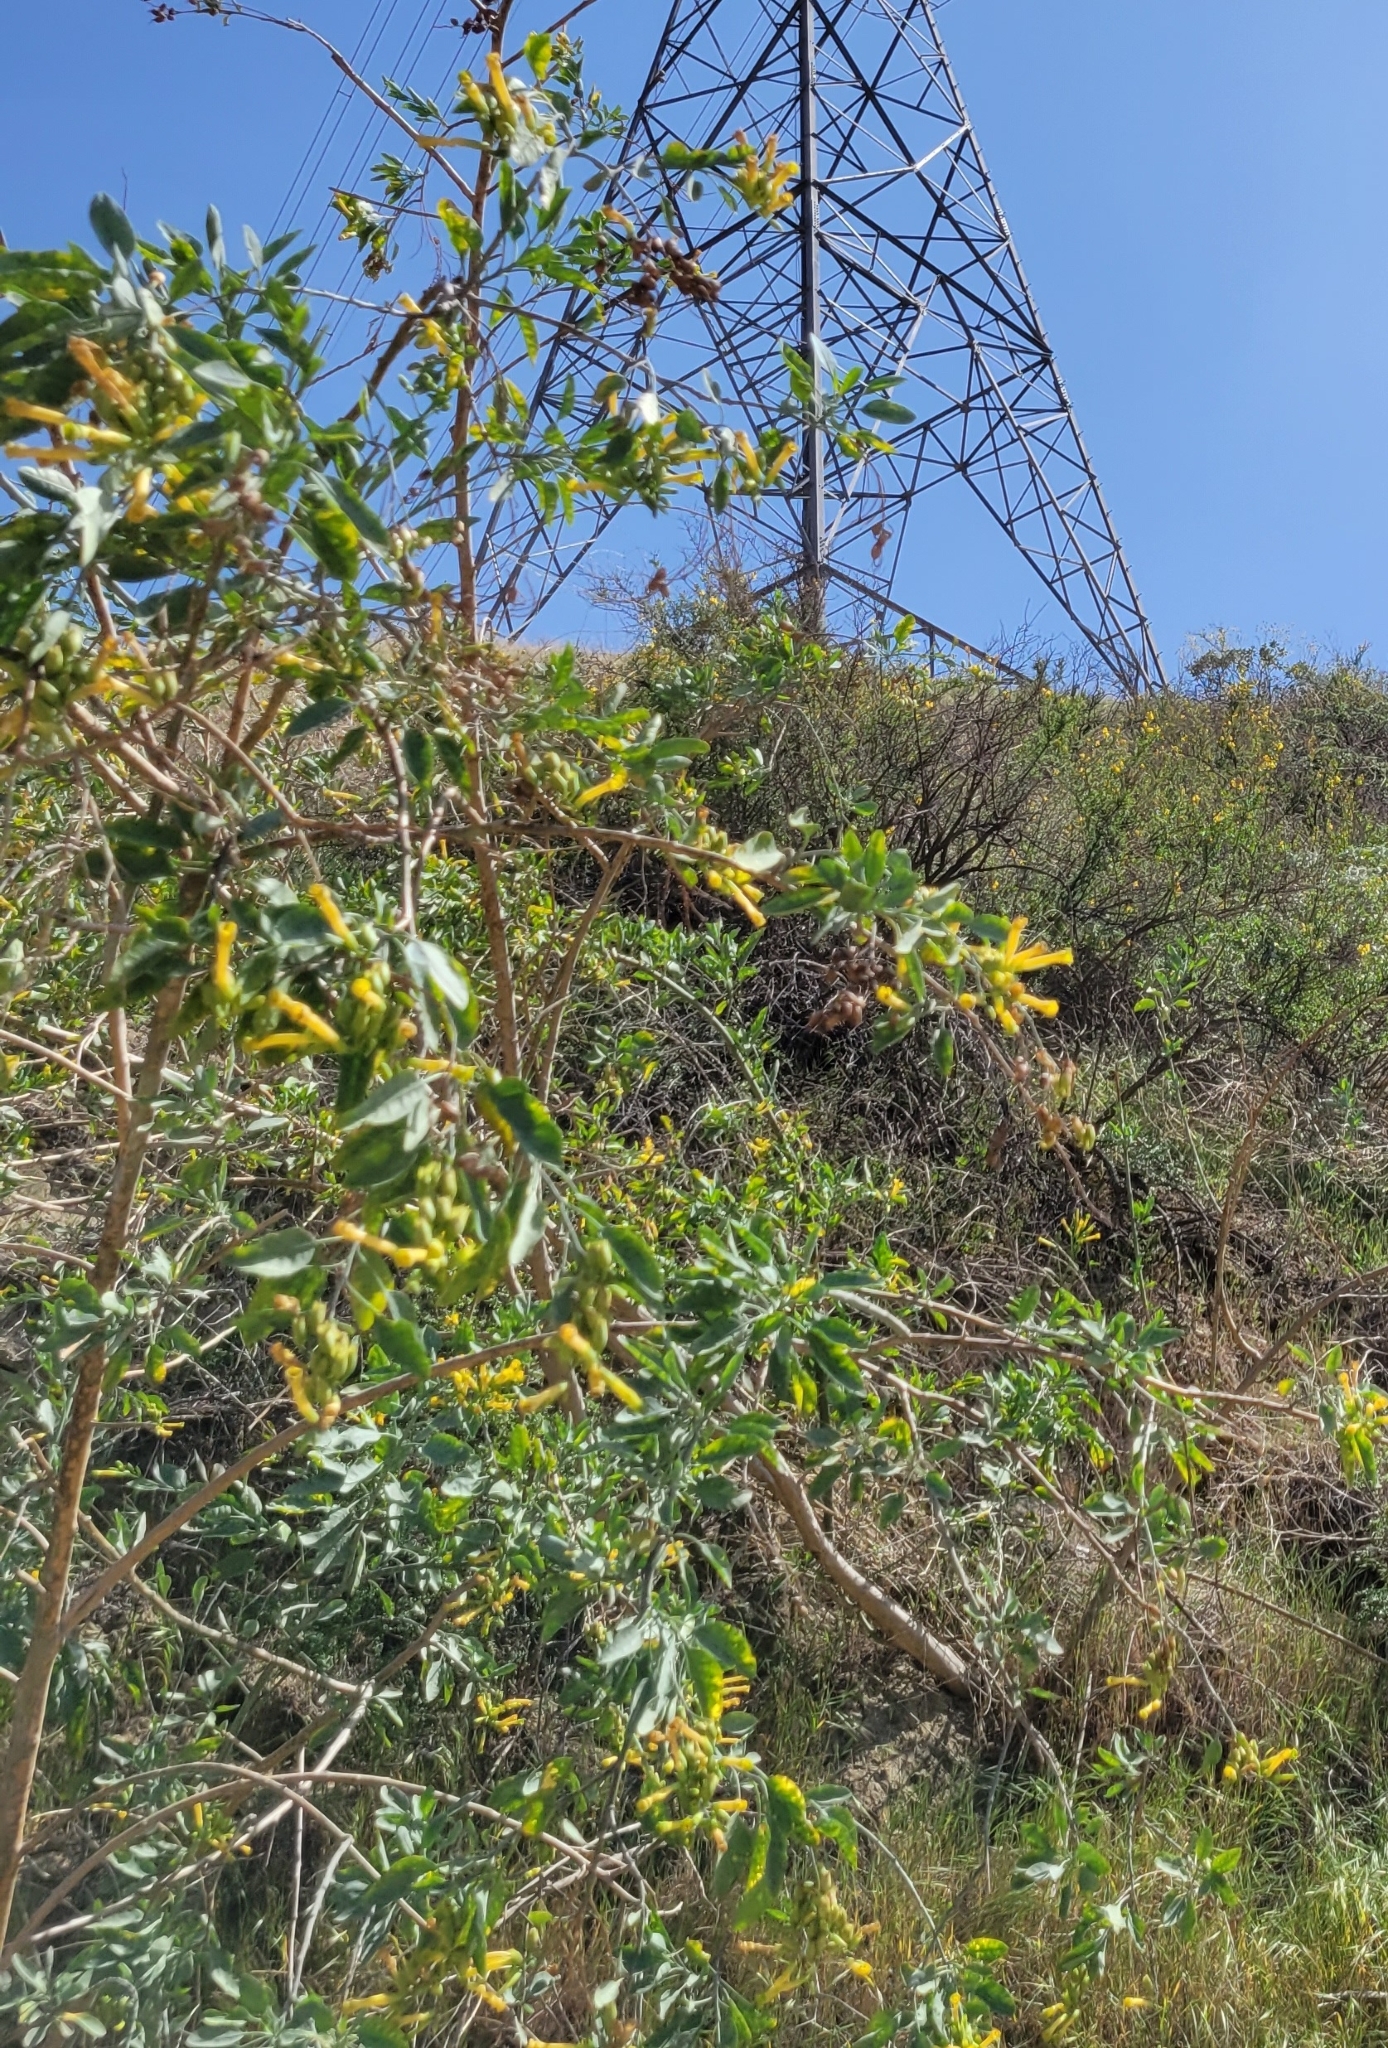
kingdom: Plantae
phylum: Tracheophyta
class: Magnoliopsida
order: Solanales
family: Solanaceae
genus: Nicotiana
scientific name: Nicotiana glauca
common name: Tree tobacco
